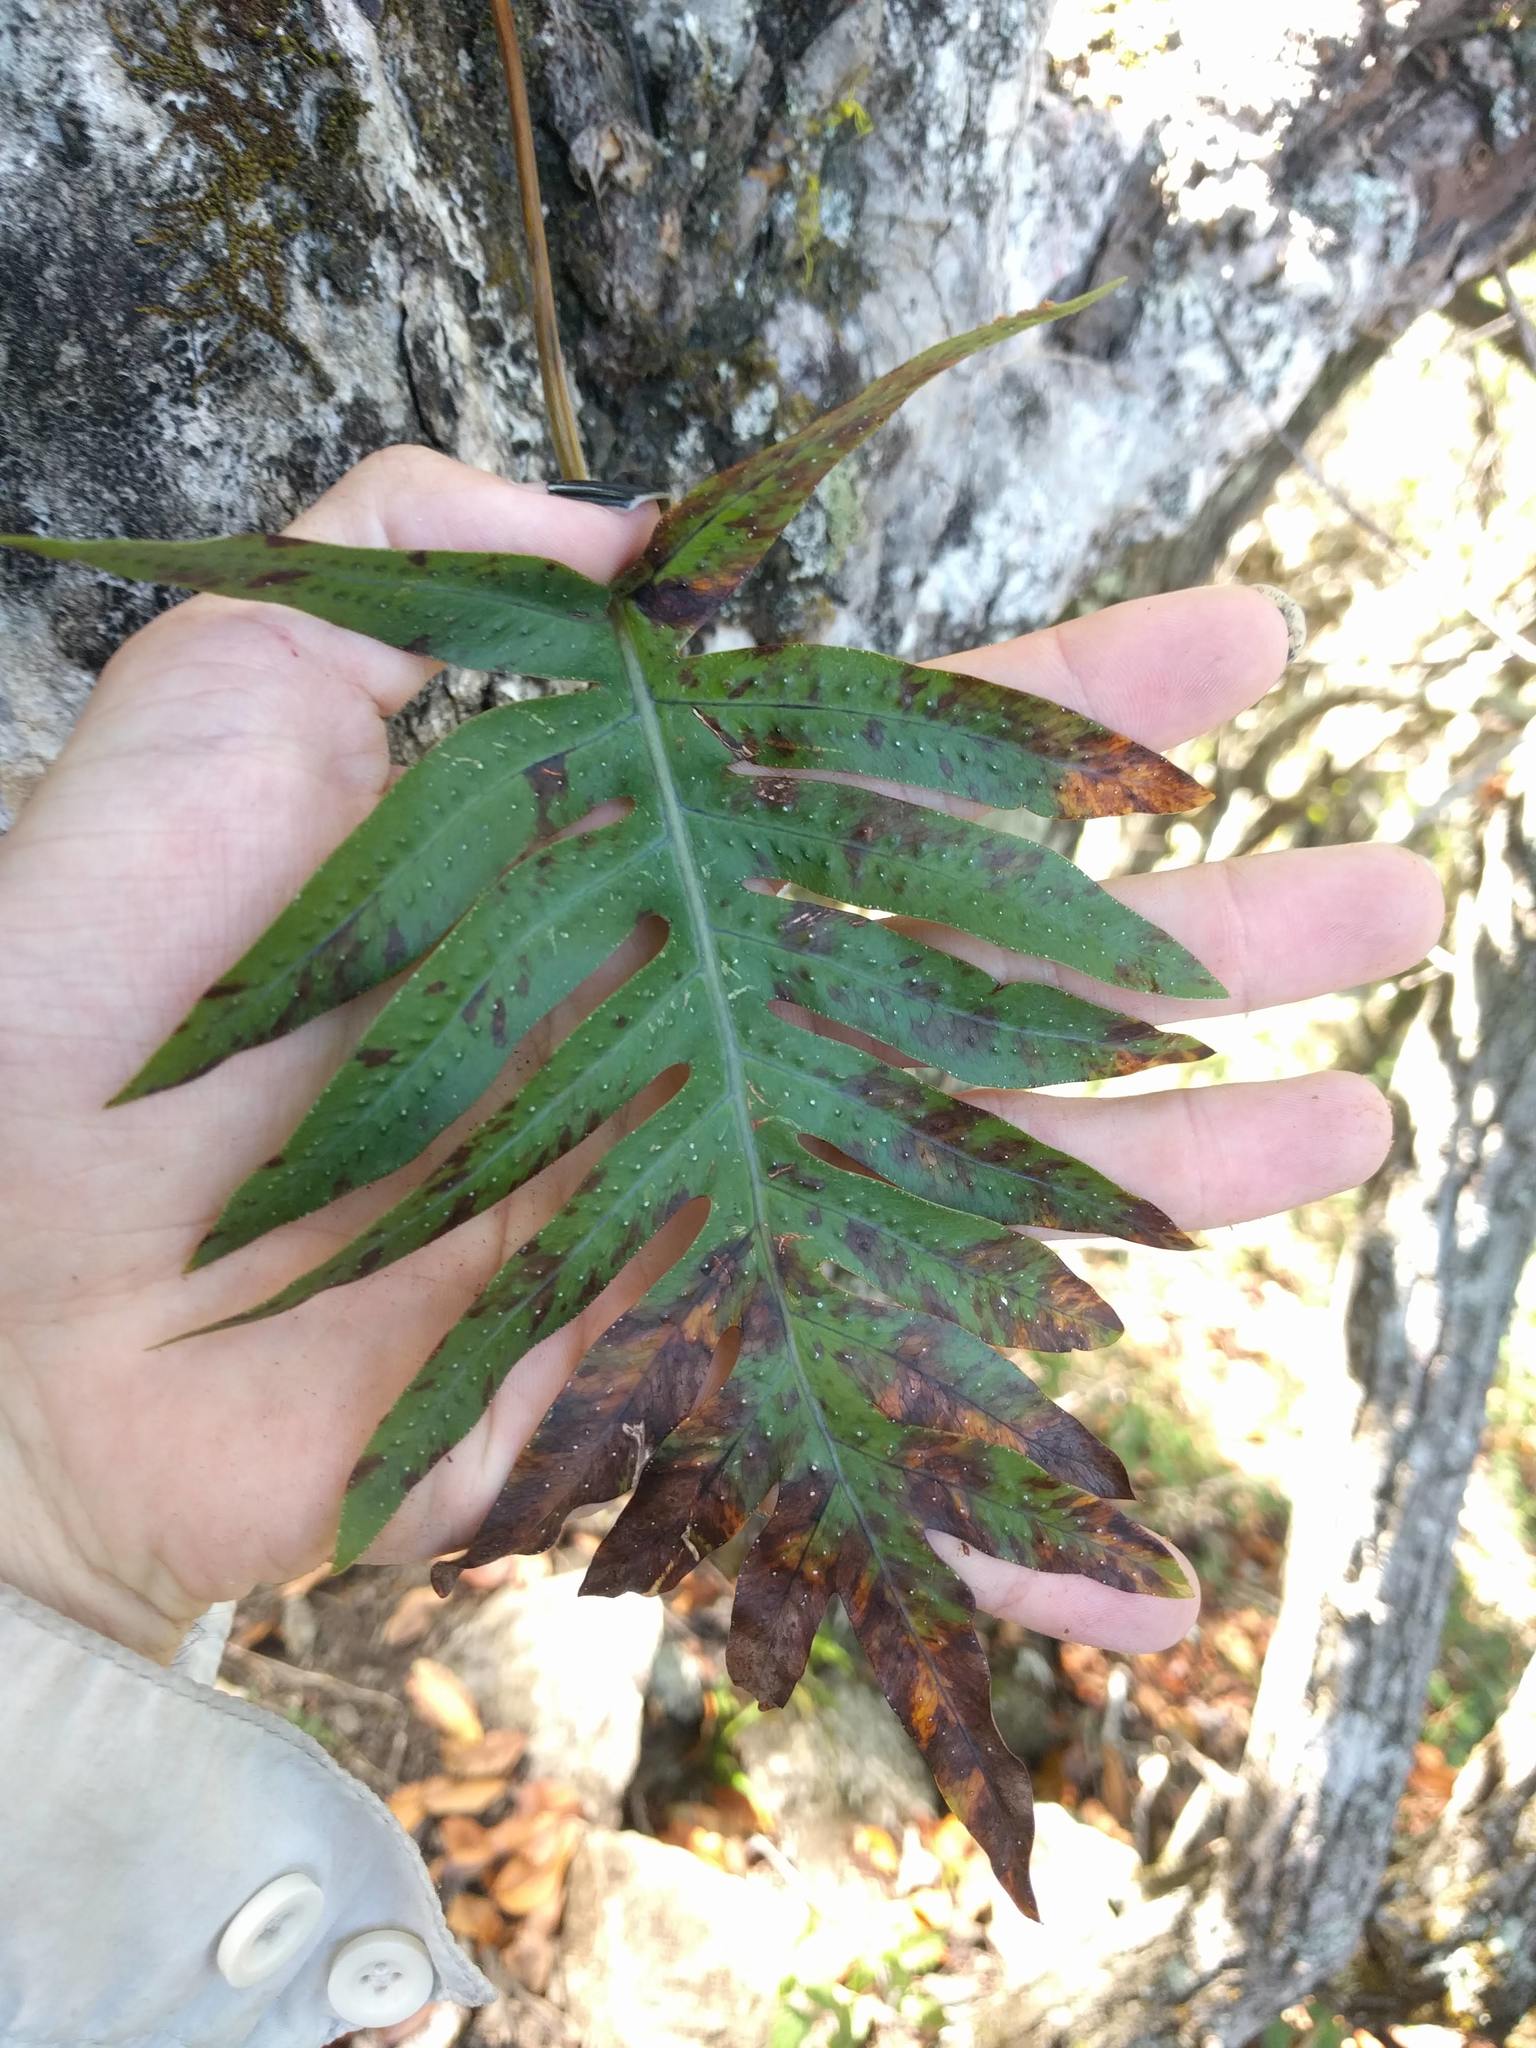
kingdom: Plantae
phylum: Tracheophyta
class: Polypodiopsida
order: Polypodiales
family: Polypodiaceae
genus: Phlebodium
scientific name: Phlebodium aureum
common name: Gold-foot fern
